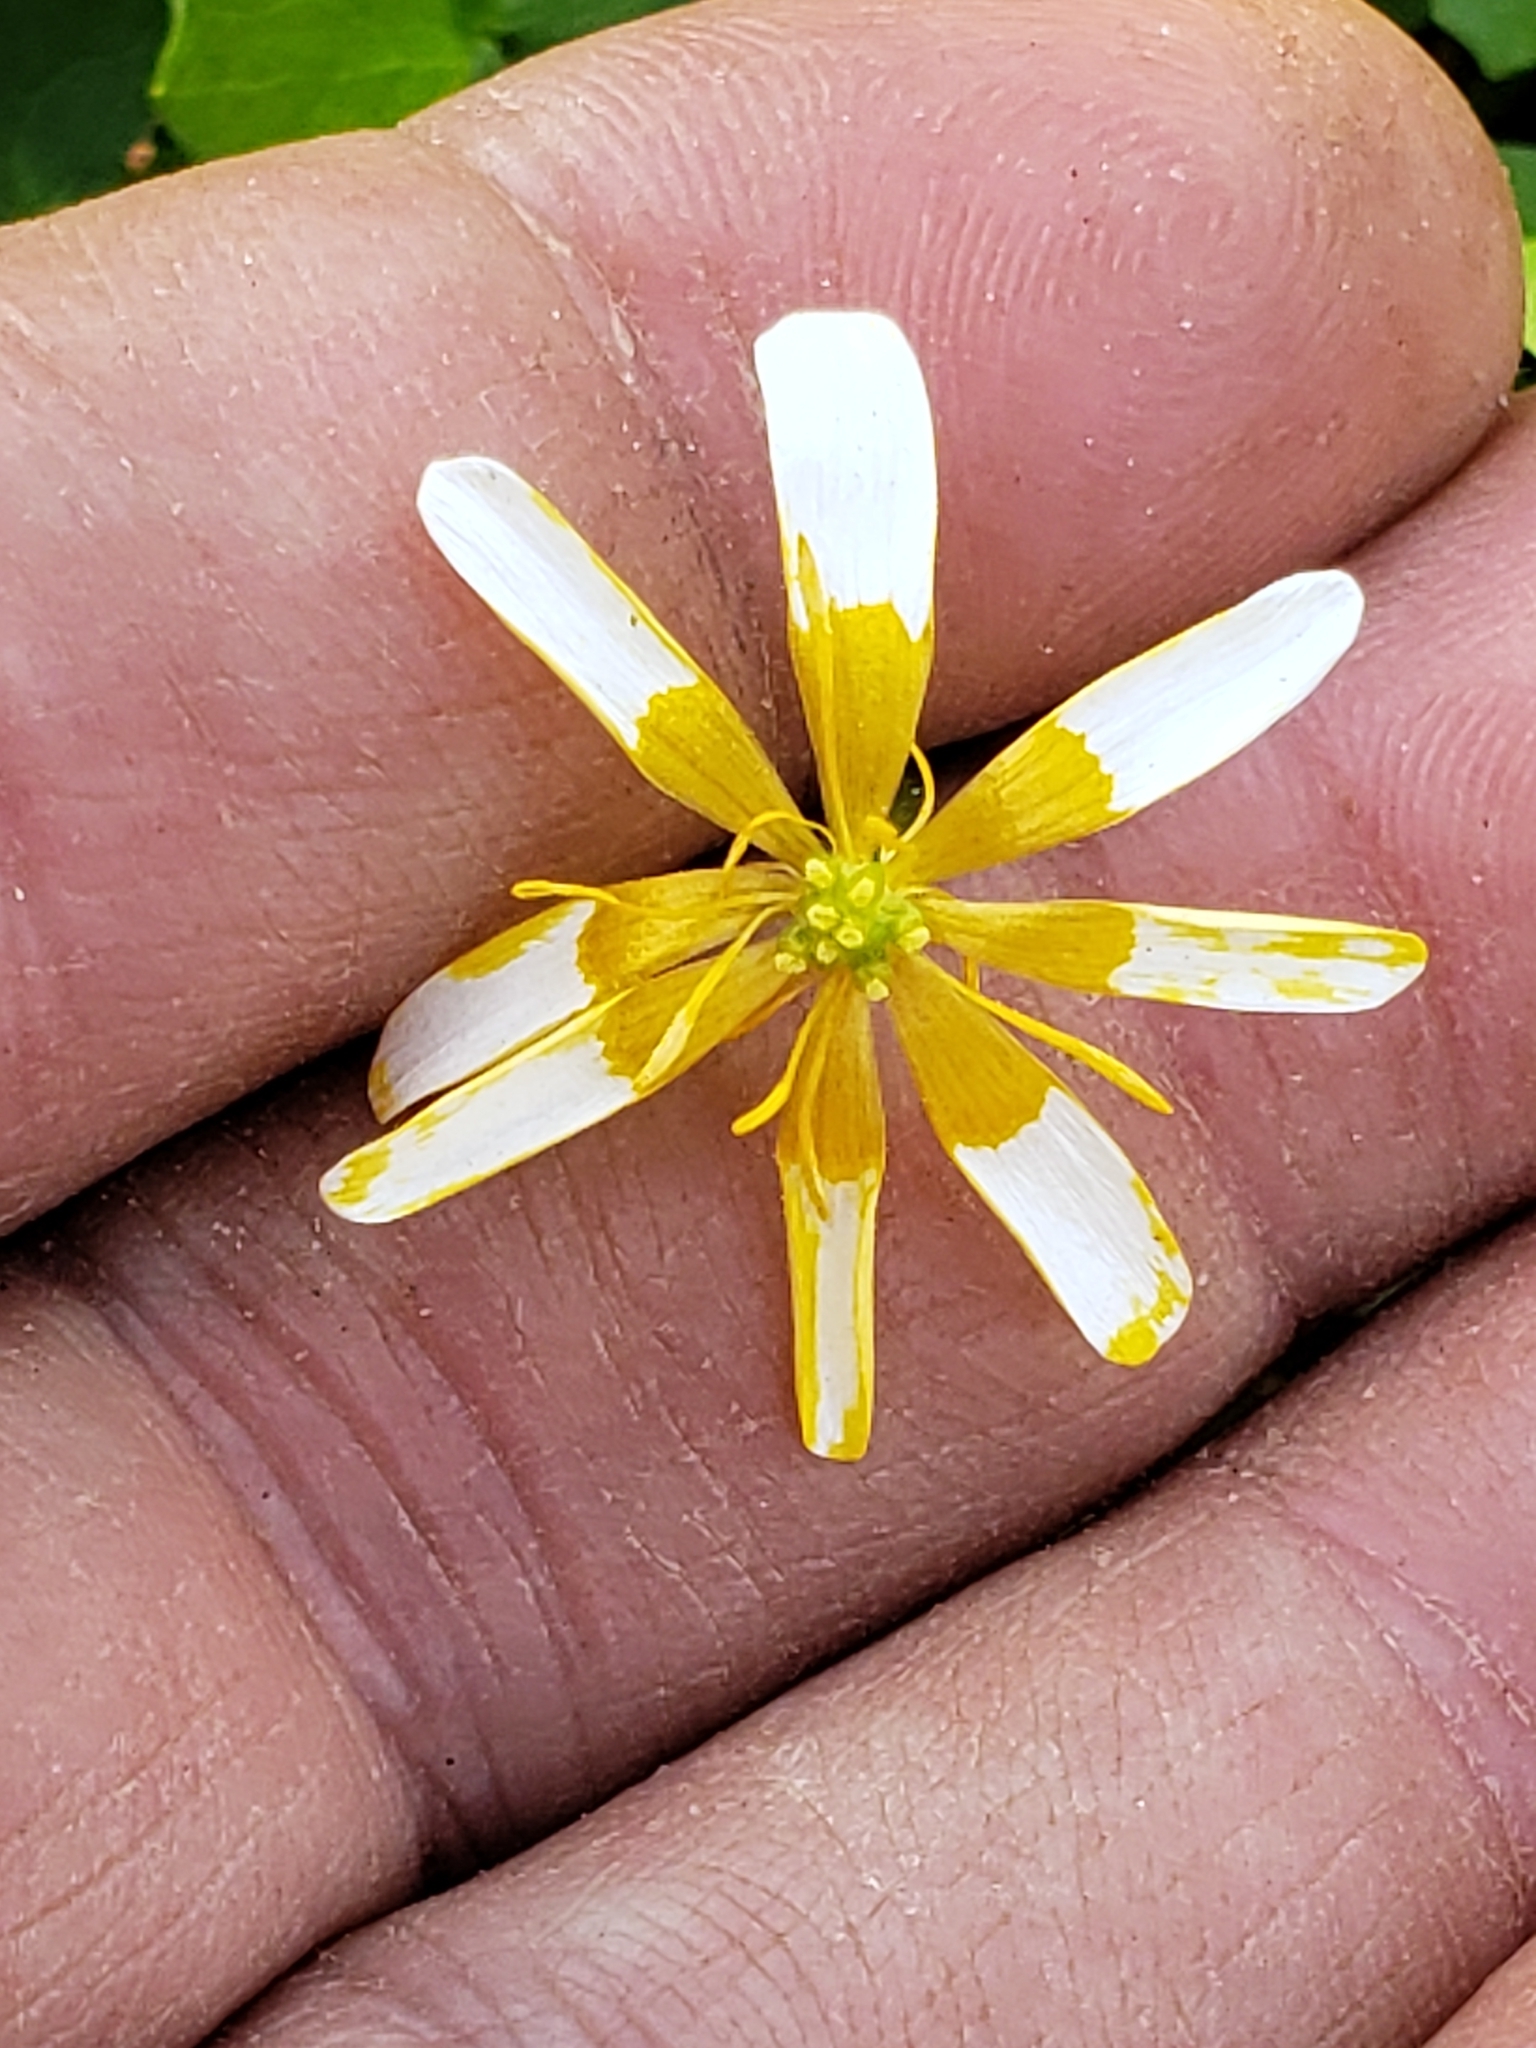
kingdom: Plantae
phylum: Tracheophyta
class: Magnoliopsida
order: Ranunculales
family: Ranunculaceae
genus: Ficaria
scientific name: Ficaria verna
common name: Lesser celandine
